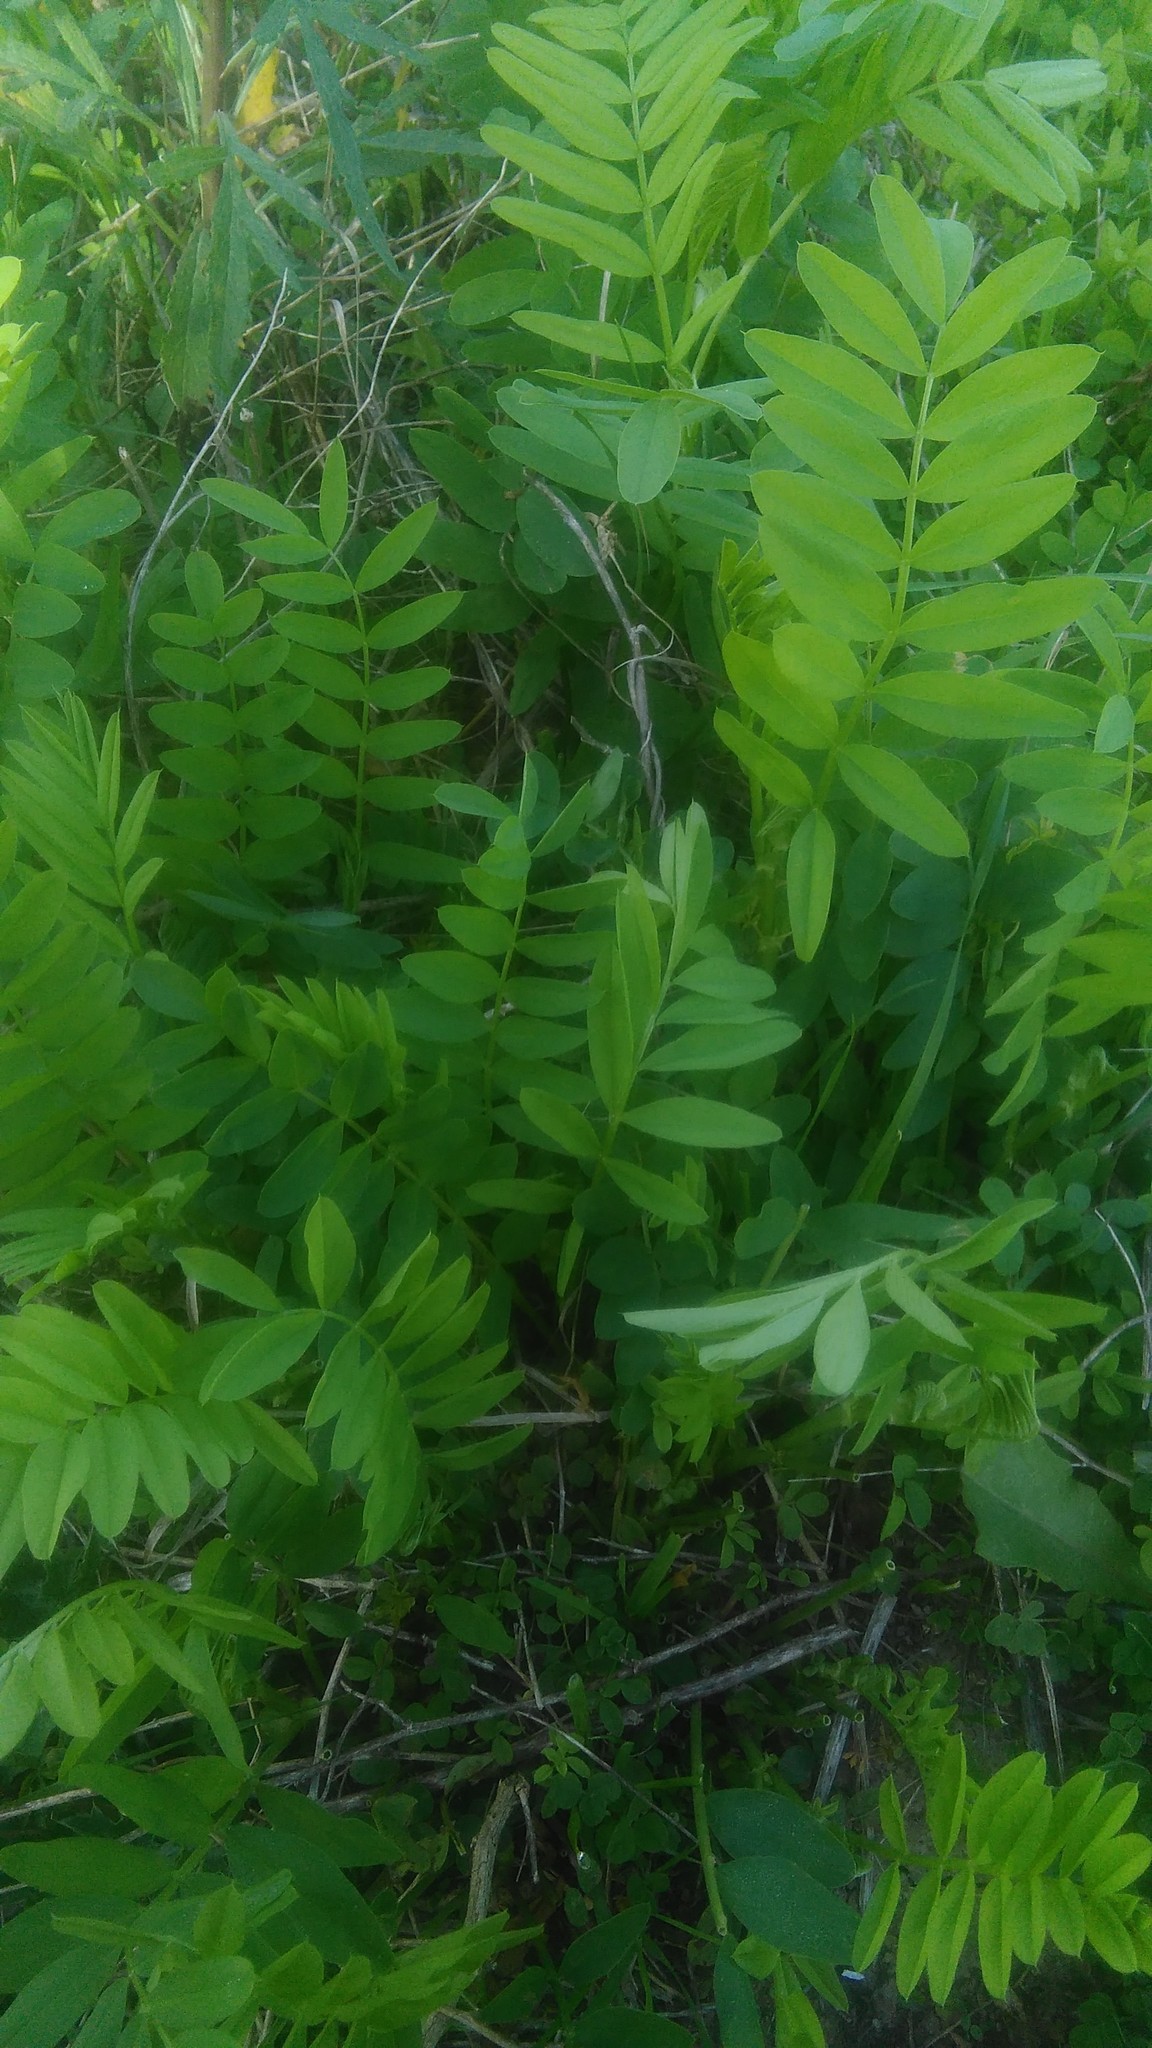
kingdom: Plantae
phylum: Tracheophyta
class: Magnoliopsida
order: Fabales
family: Fabaceae
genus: Galega
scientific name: Galega officinalis
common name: Goat's-rue
